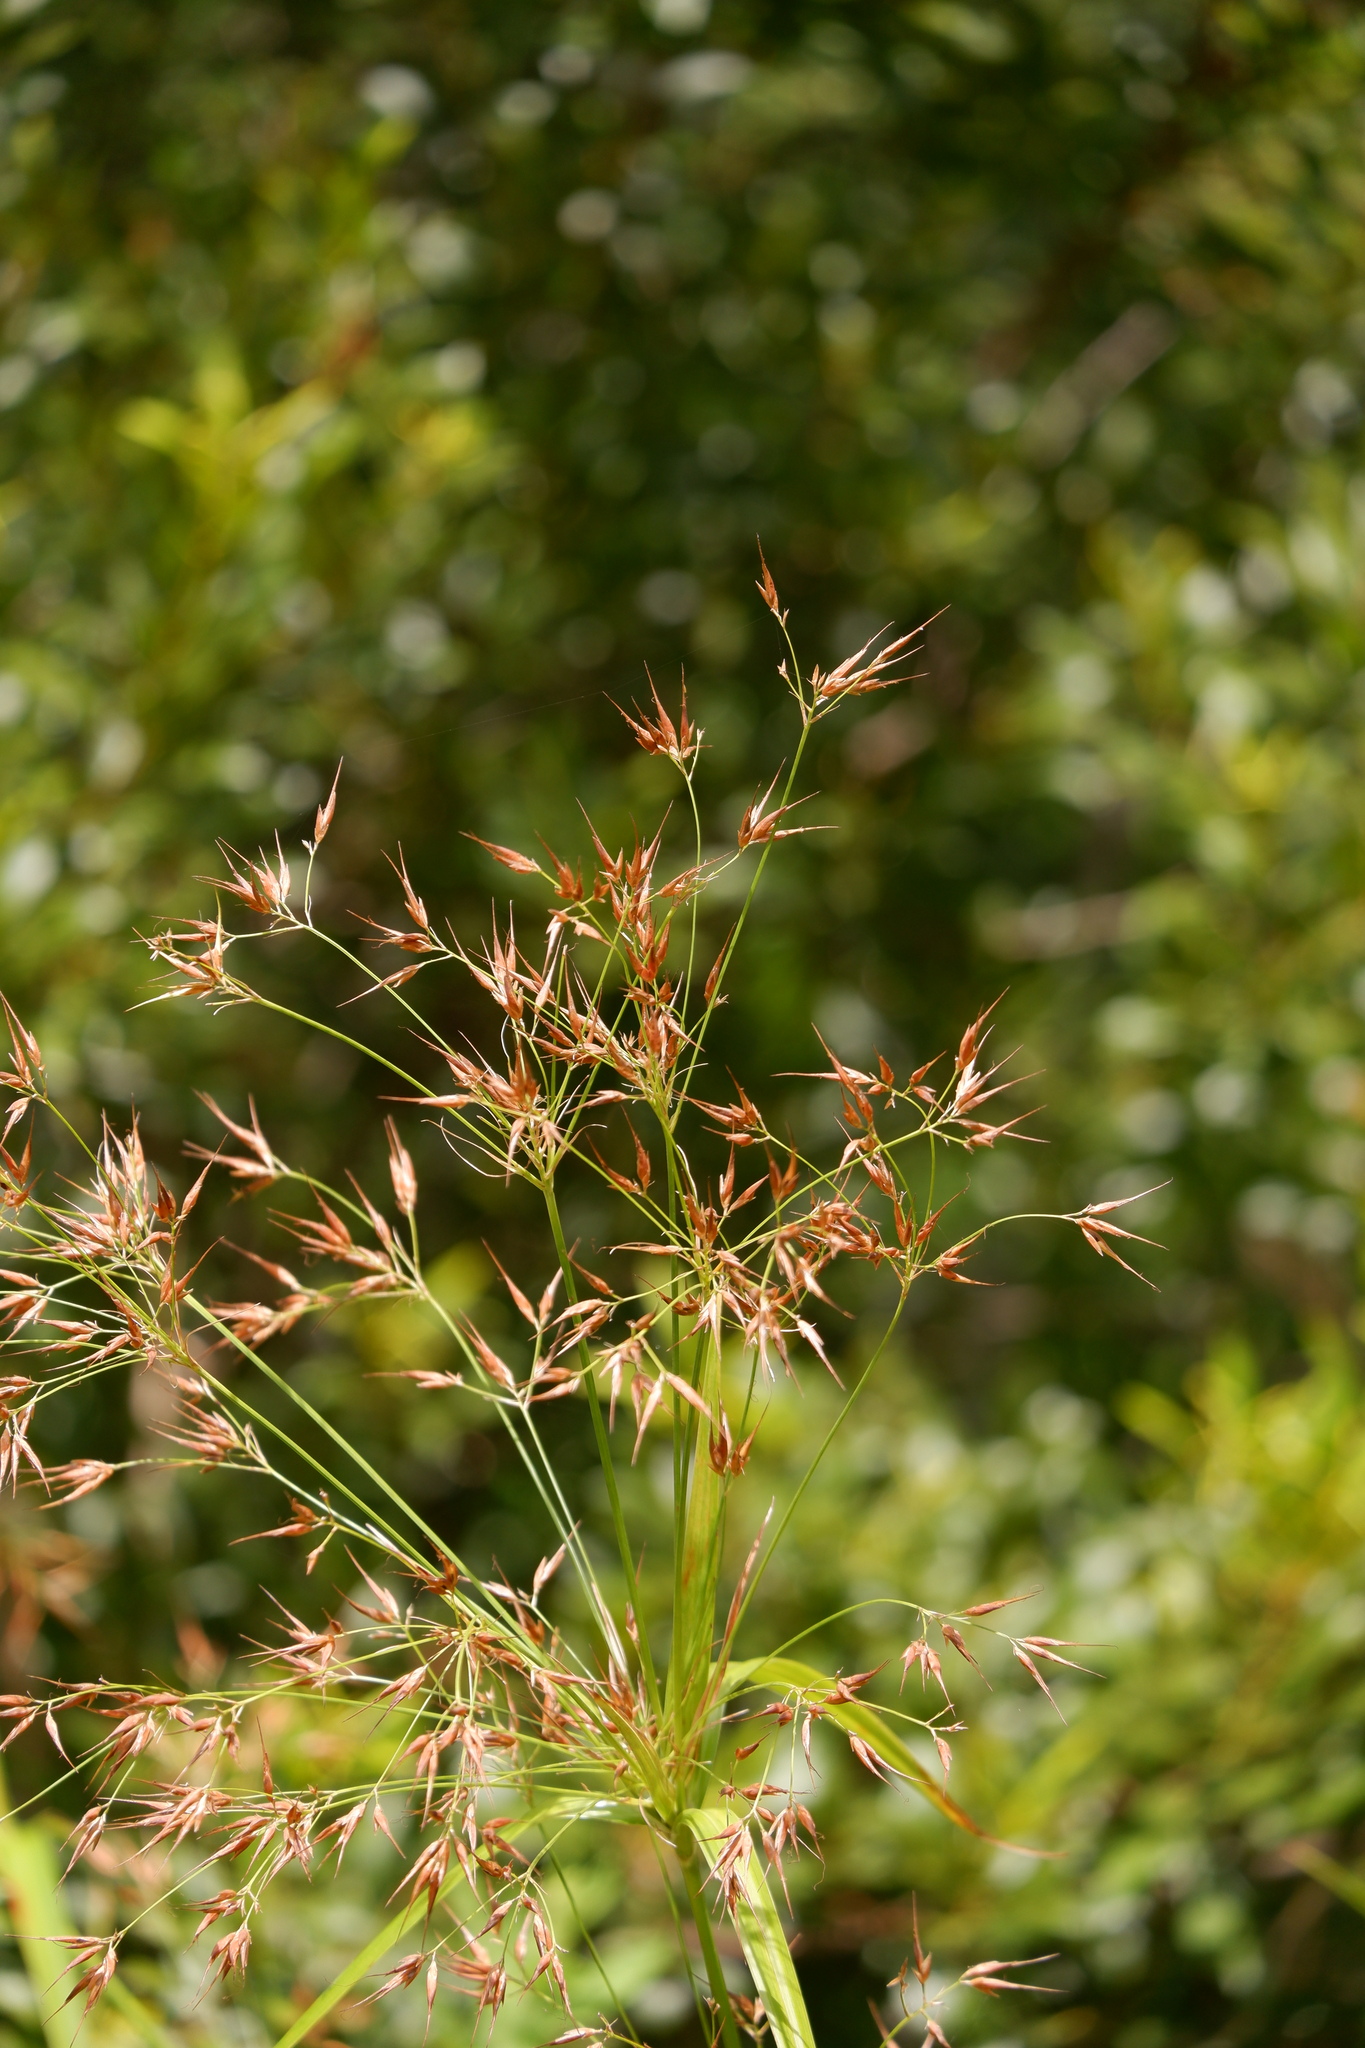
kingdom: Plantae
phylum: Tracheophyta
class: Liliopsida
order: Poales
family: Cyperaceae
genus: Rhynchospora
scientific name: Rhynchospora corniculata
